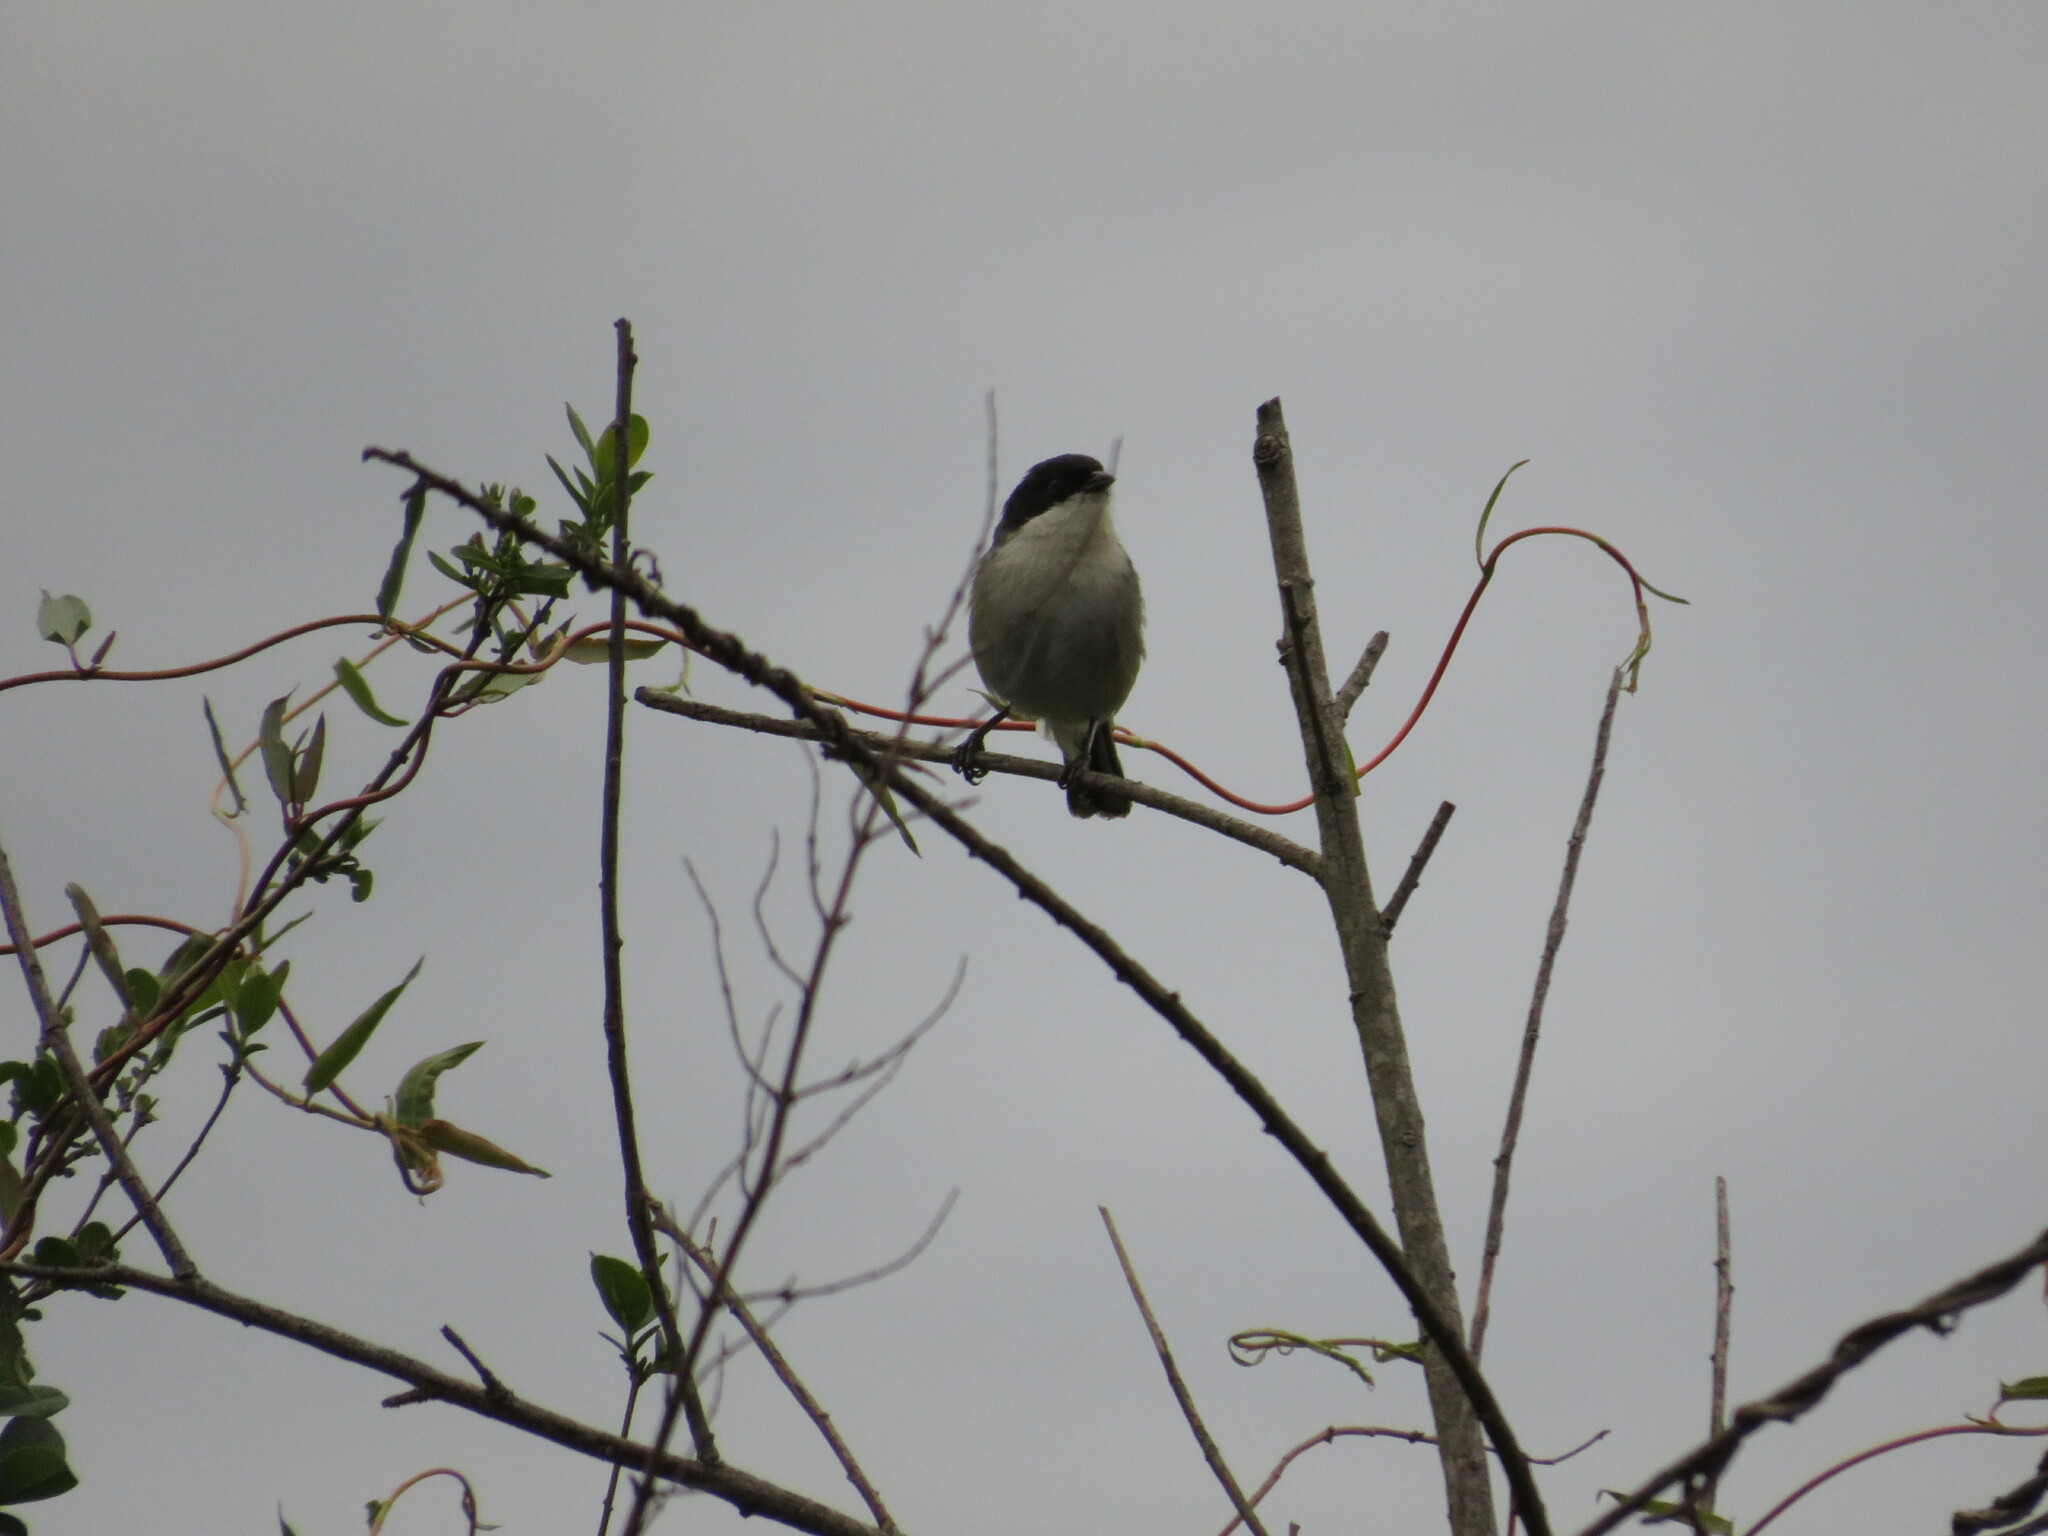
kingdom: Animalia
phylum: Chordata
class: Aves
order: Passeriformes
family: Thraupidae
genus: Microspingus
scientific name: Microspingus melanoleucus
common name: Black-capped warbling-finch
